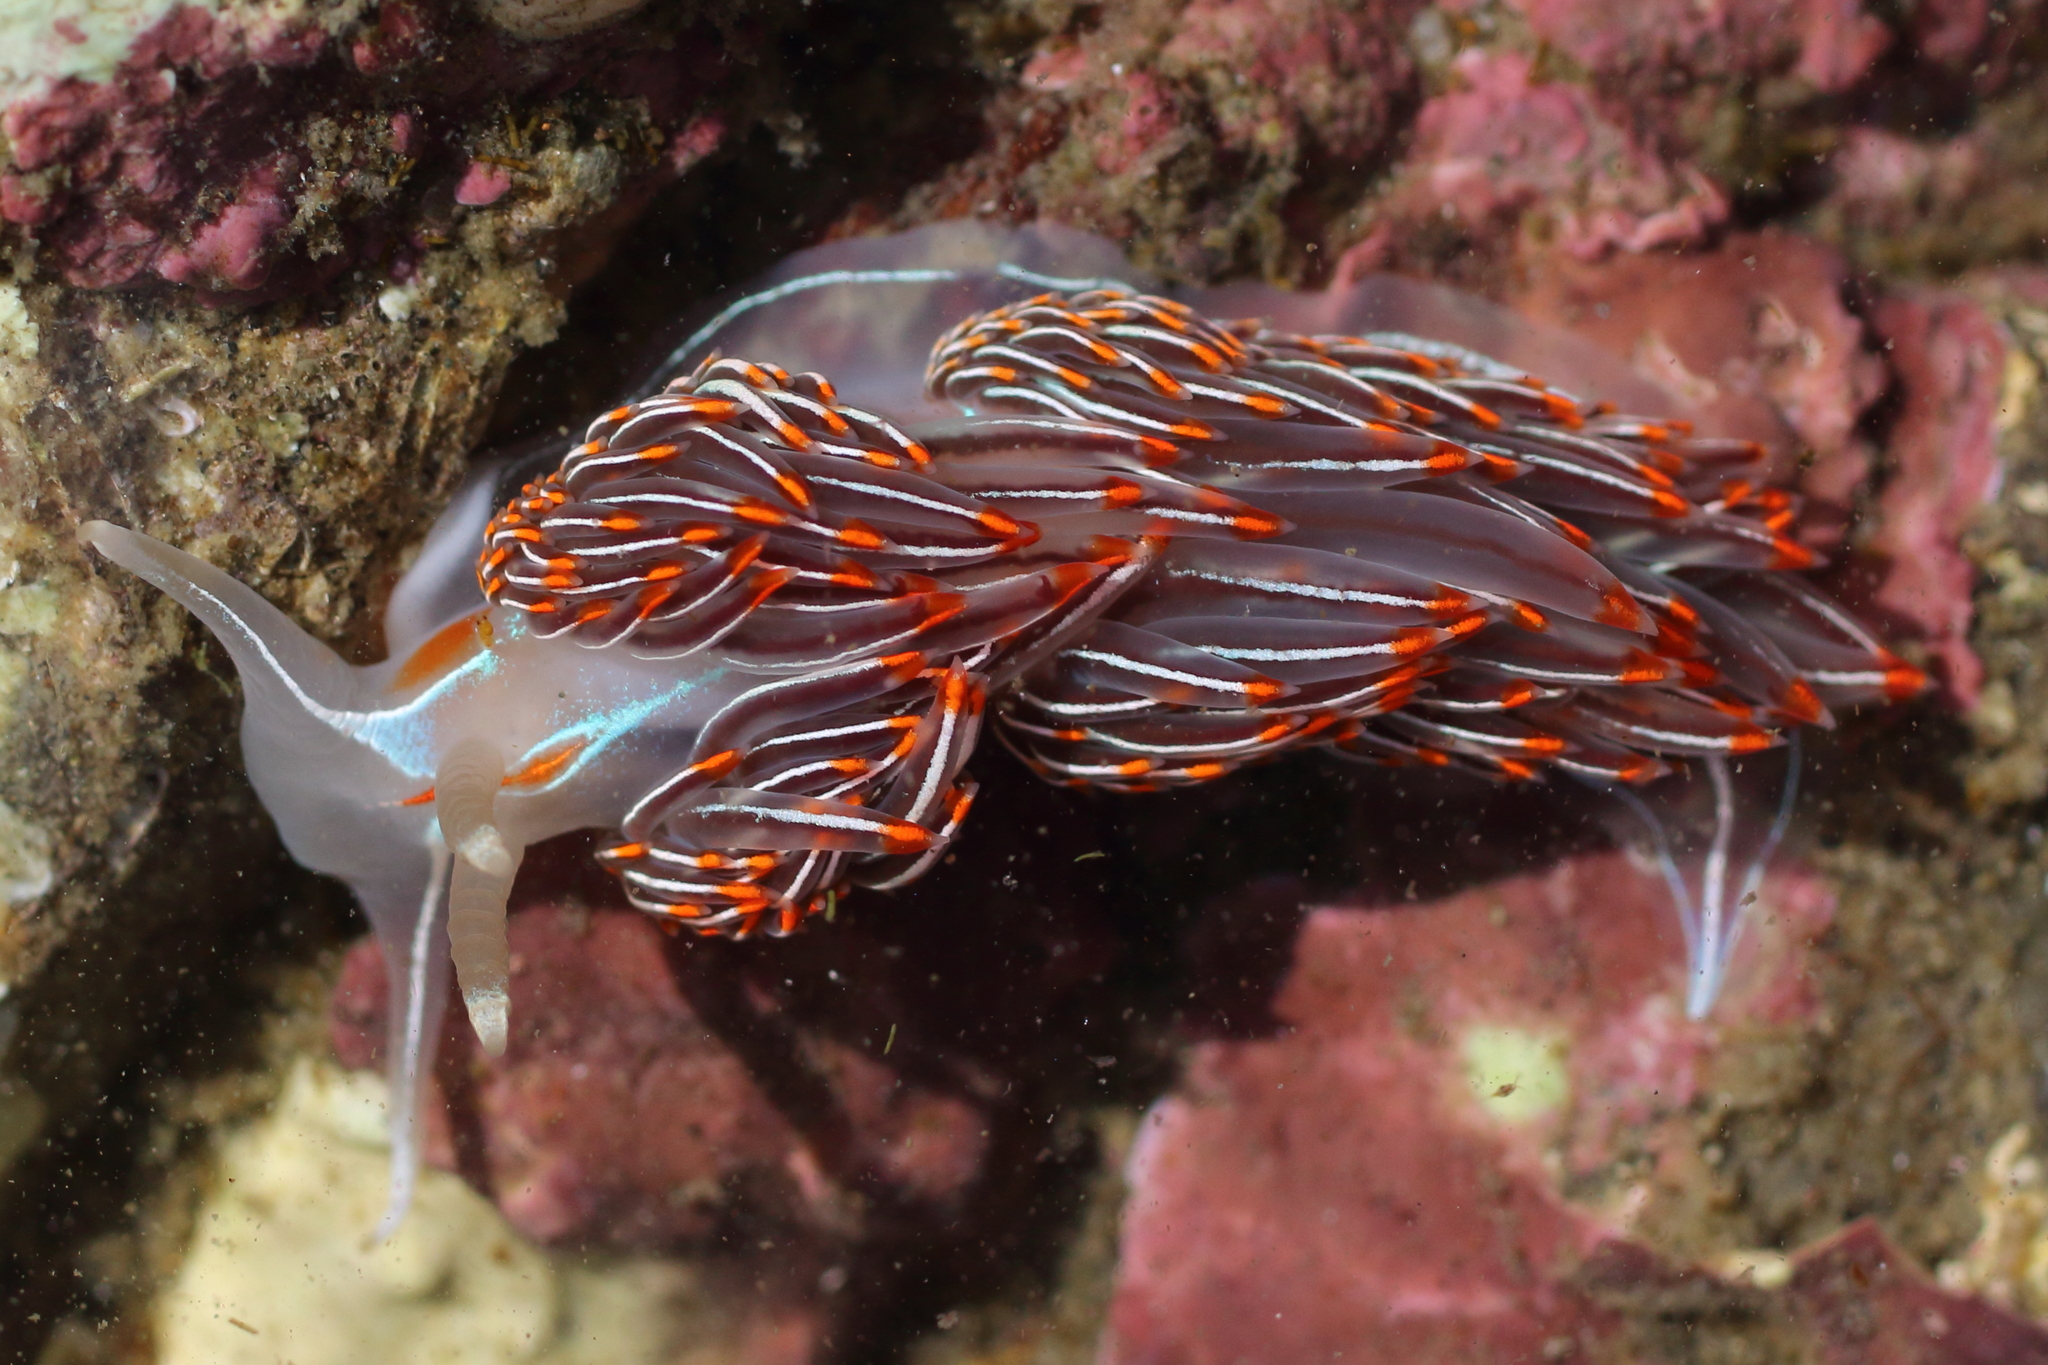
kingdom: Animalia
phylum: Mollusca
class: Gastropoda
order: Nudibranchia
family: Myrrhinidae
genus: Hermissenda
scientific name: Hermissenda crassicornis
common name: Hermissenda
